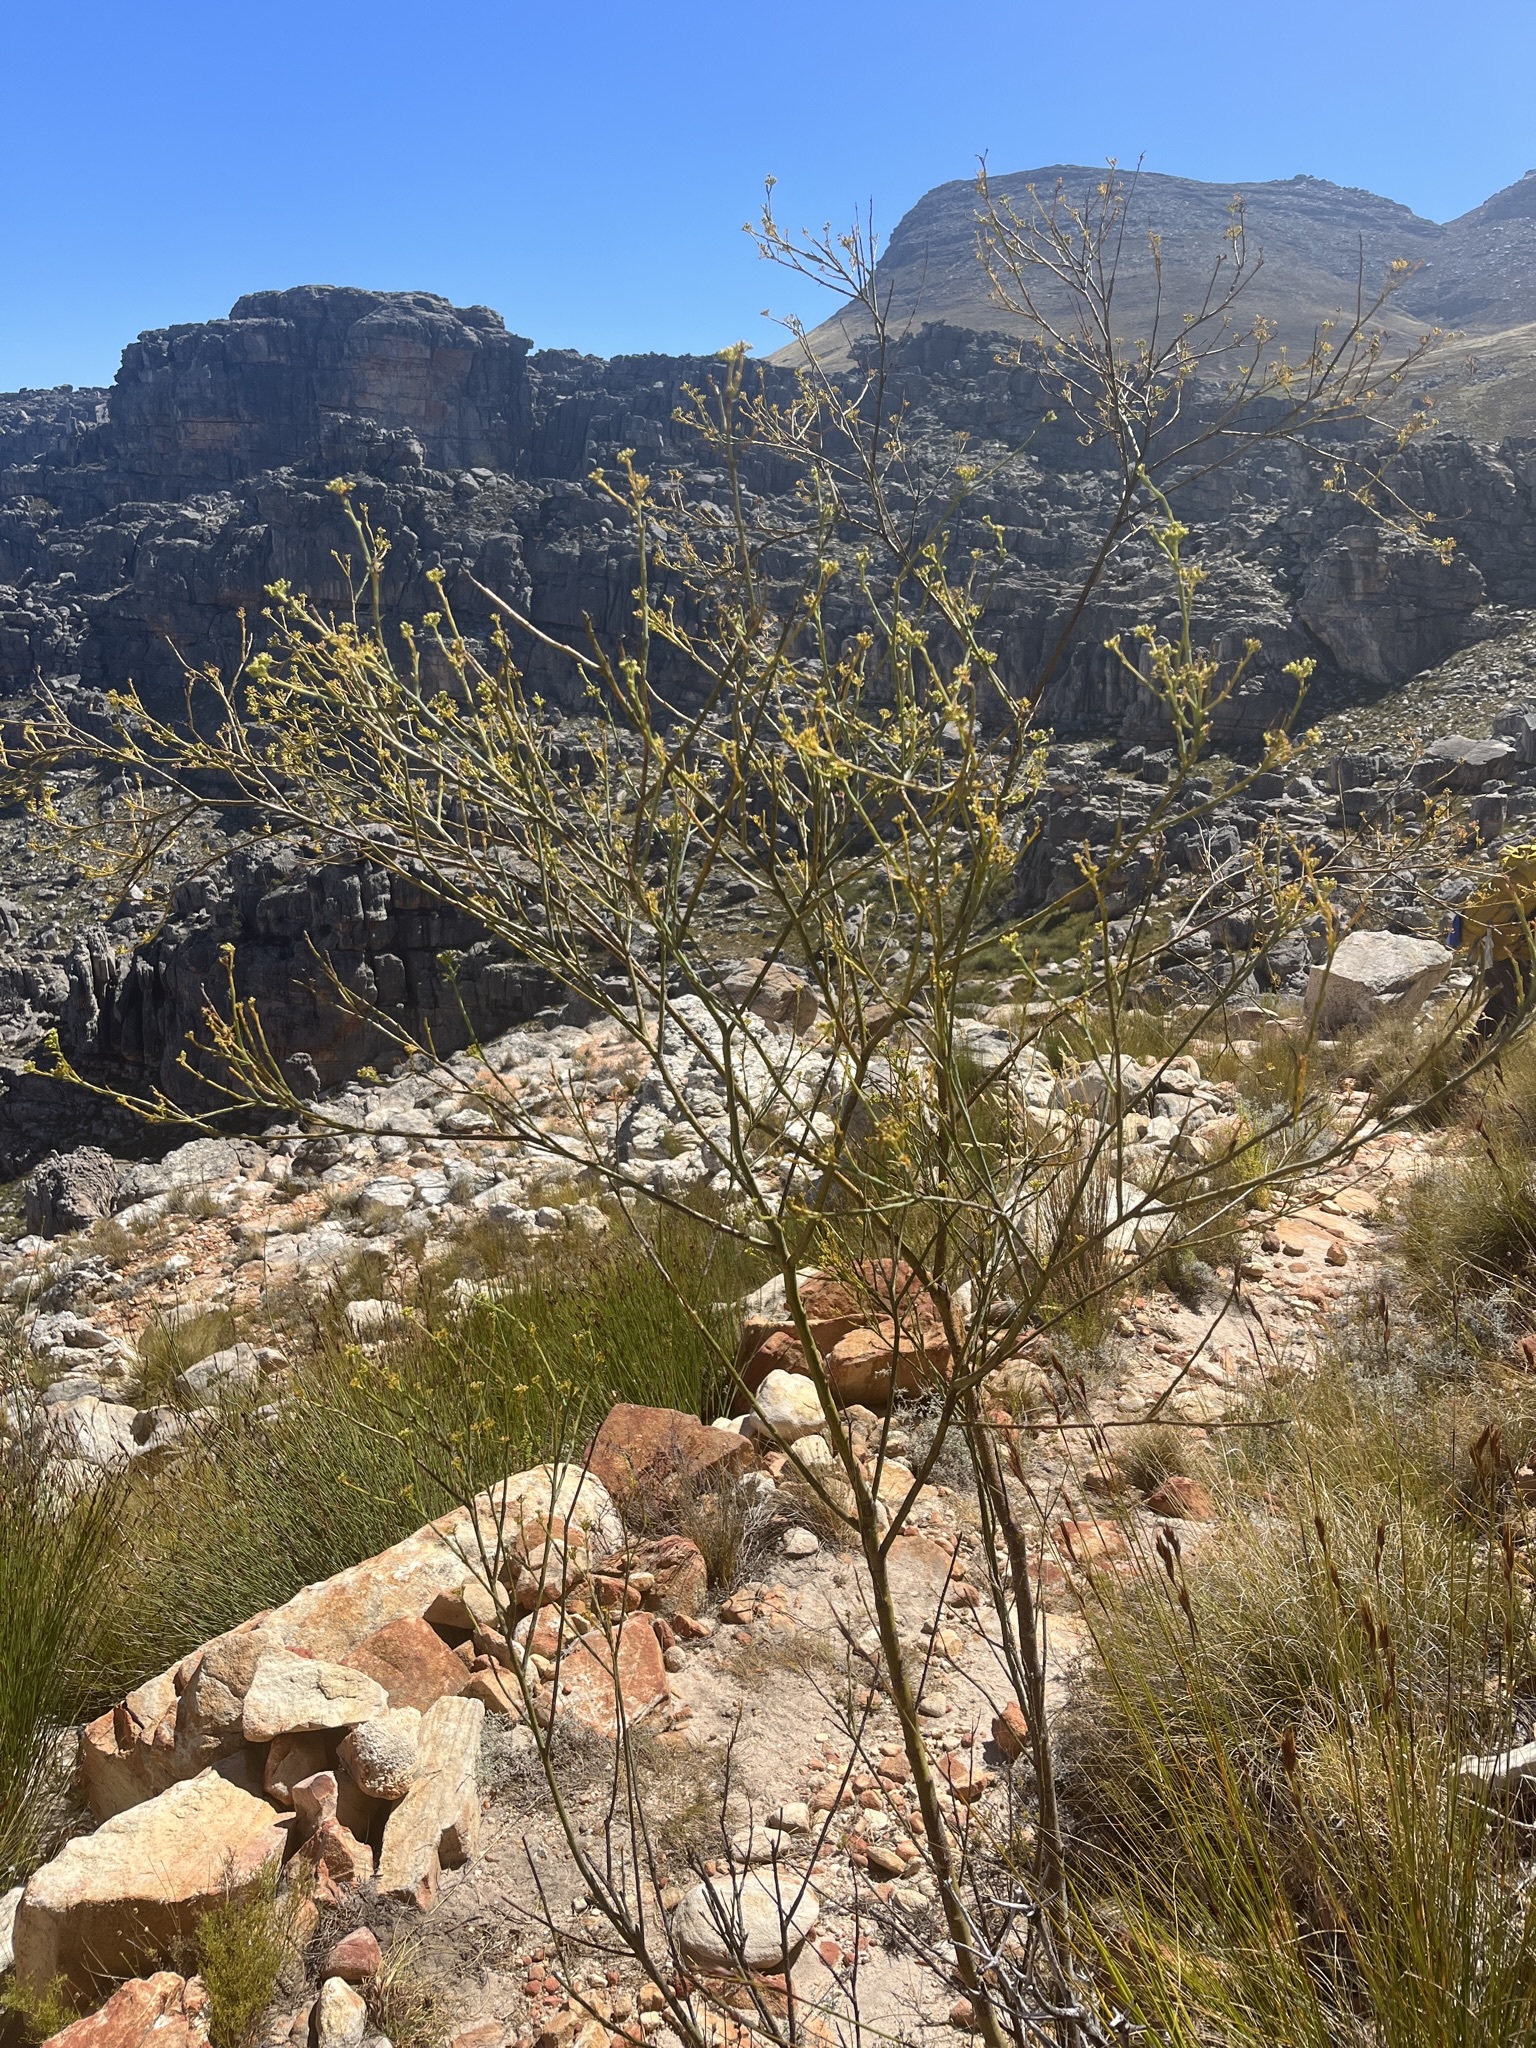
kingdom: Plantae
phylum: Tracheophyta
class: Magnoliopsida
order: Santalales
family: Thesiaceae
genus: Thesium
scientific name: Thesium strictum
